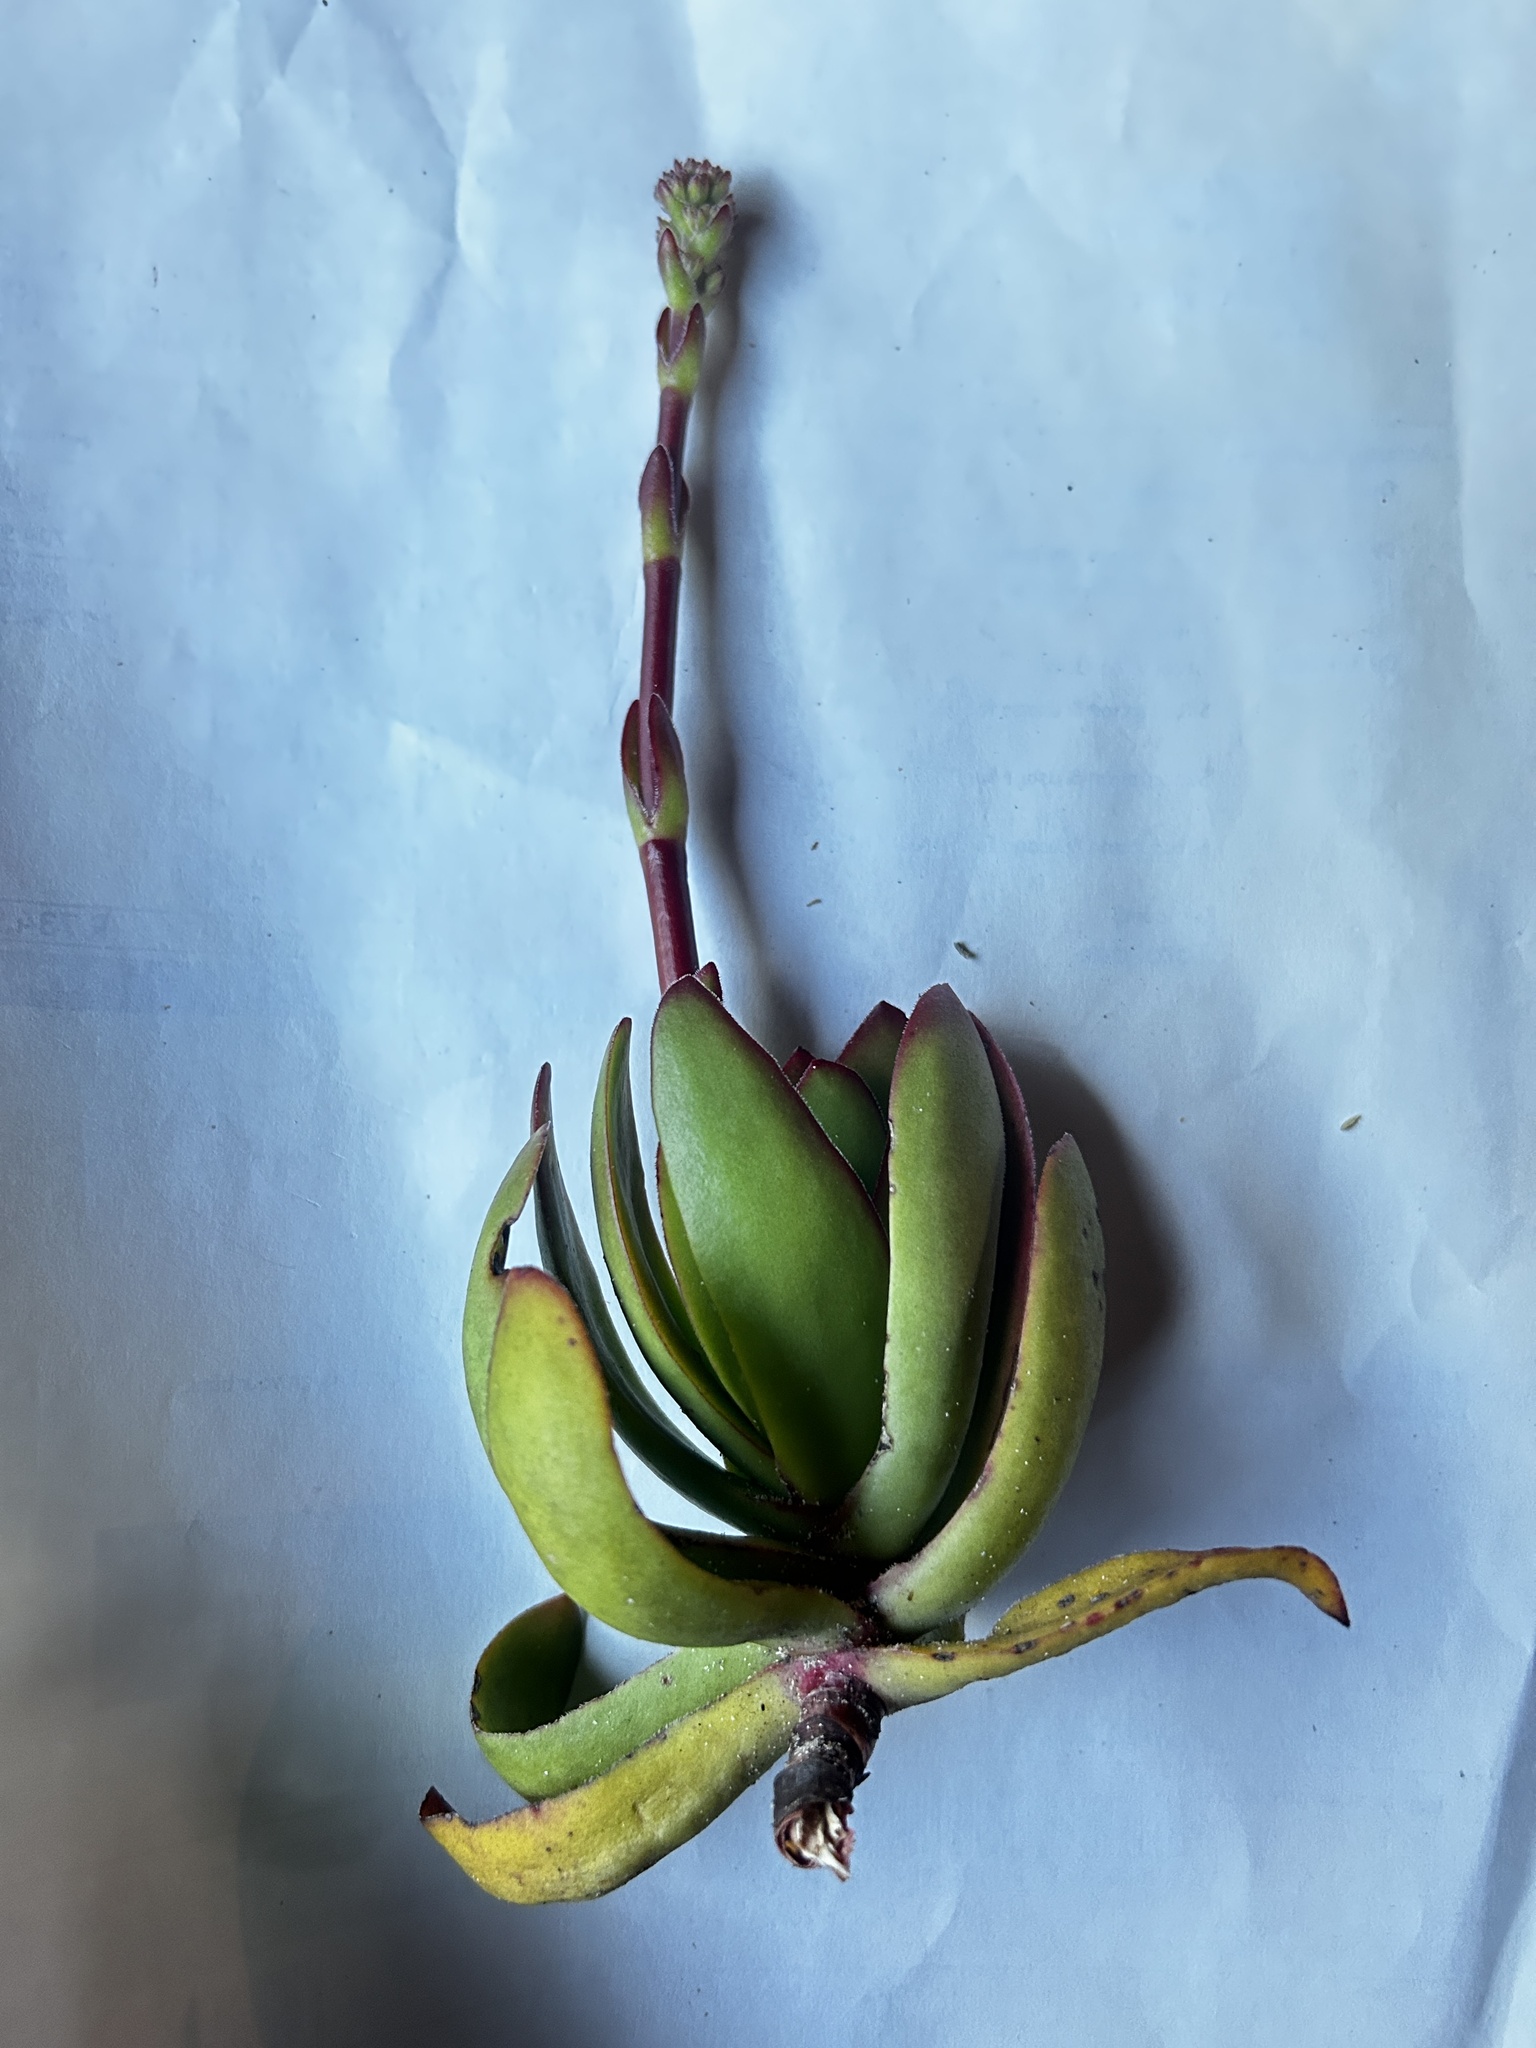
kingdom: Plantae
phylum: Tracheophyta
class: Magnoliopsida
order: Saxifragales
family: Crassulaceae
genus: Crassula
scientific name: Crassula pubescens
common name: Jersey pigmyweed
